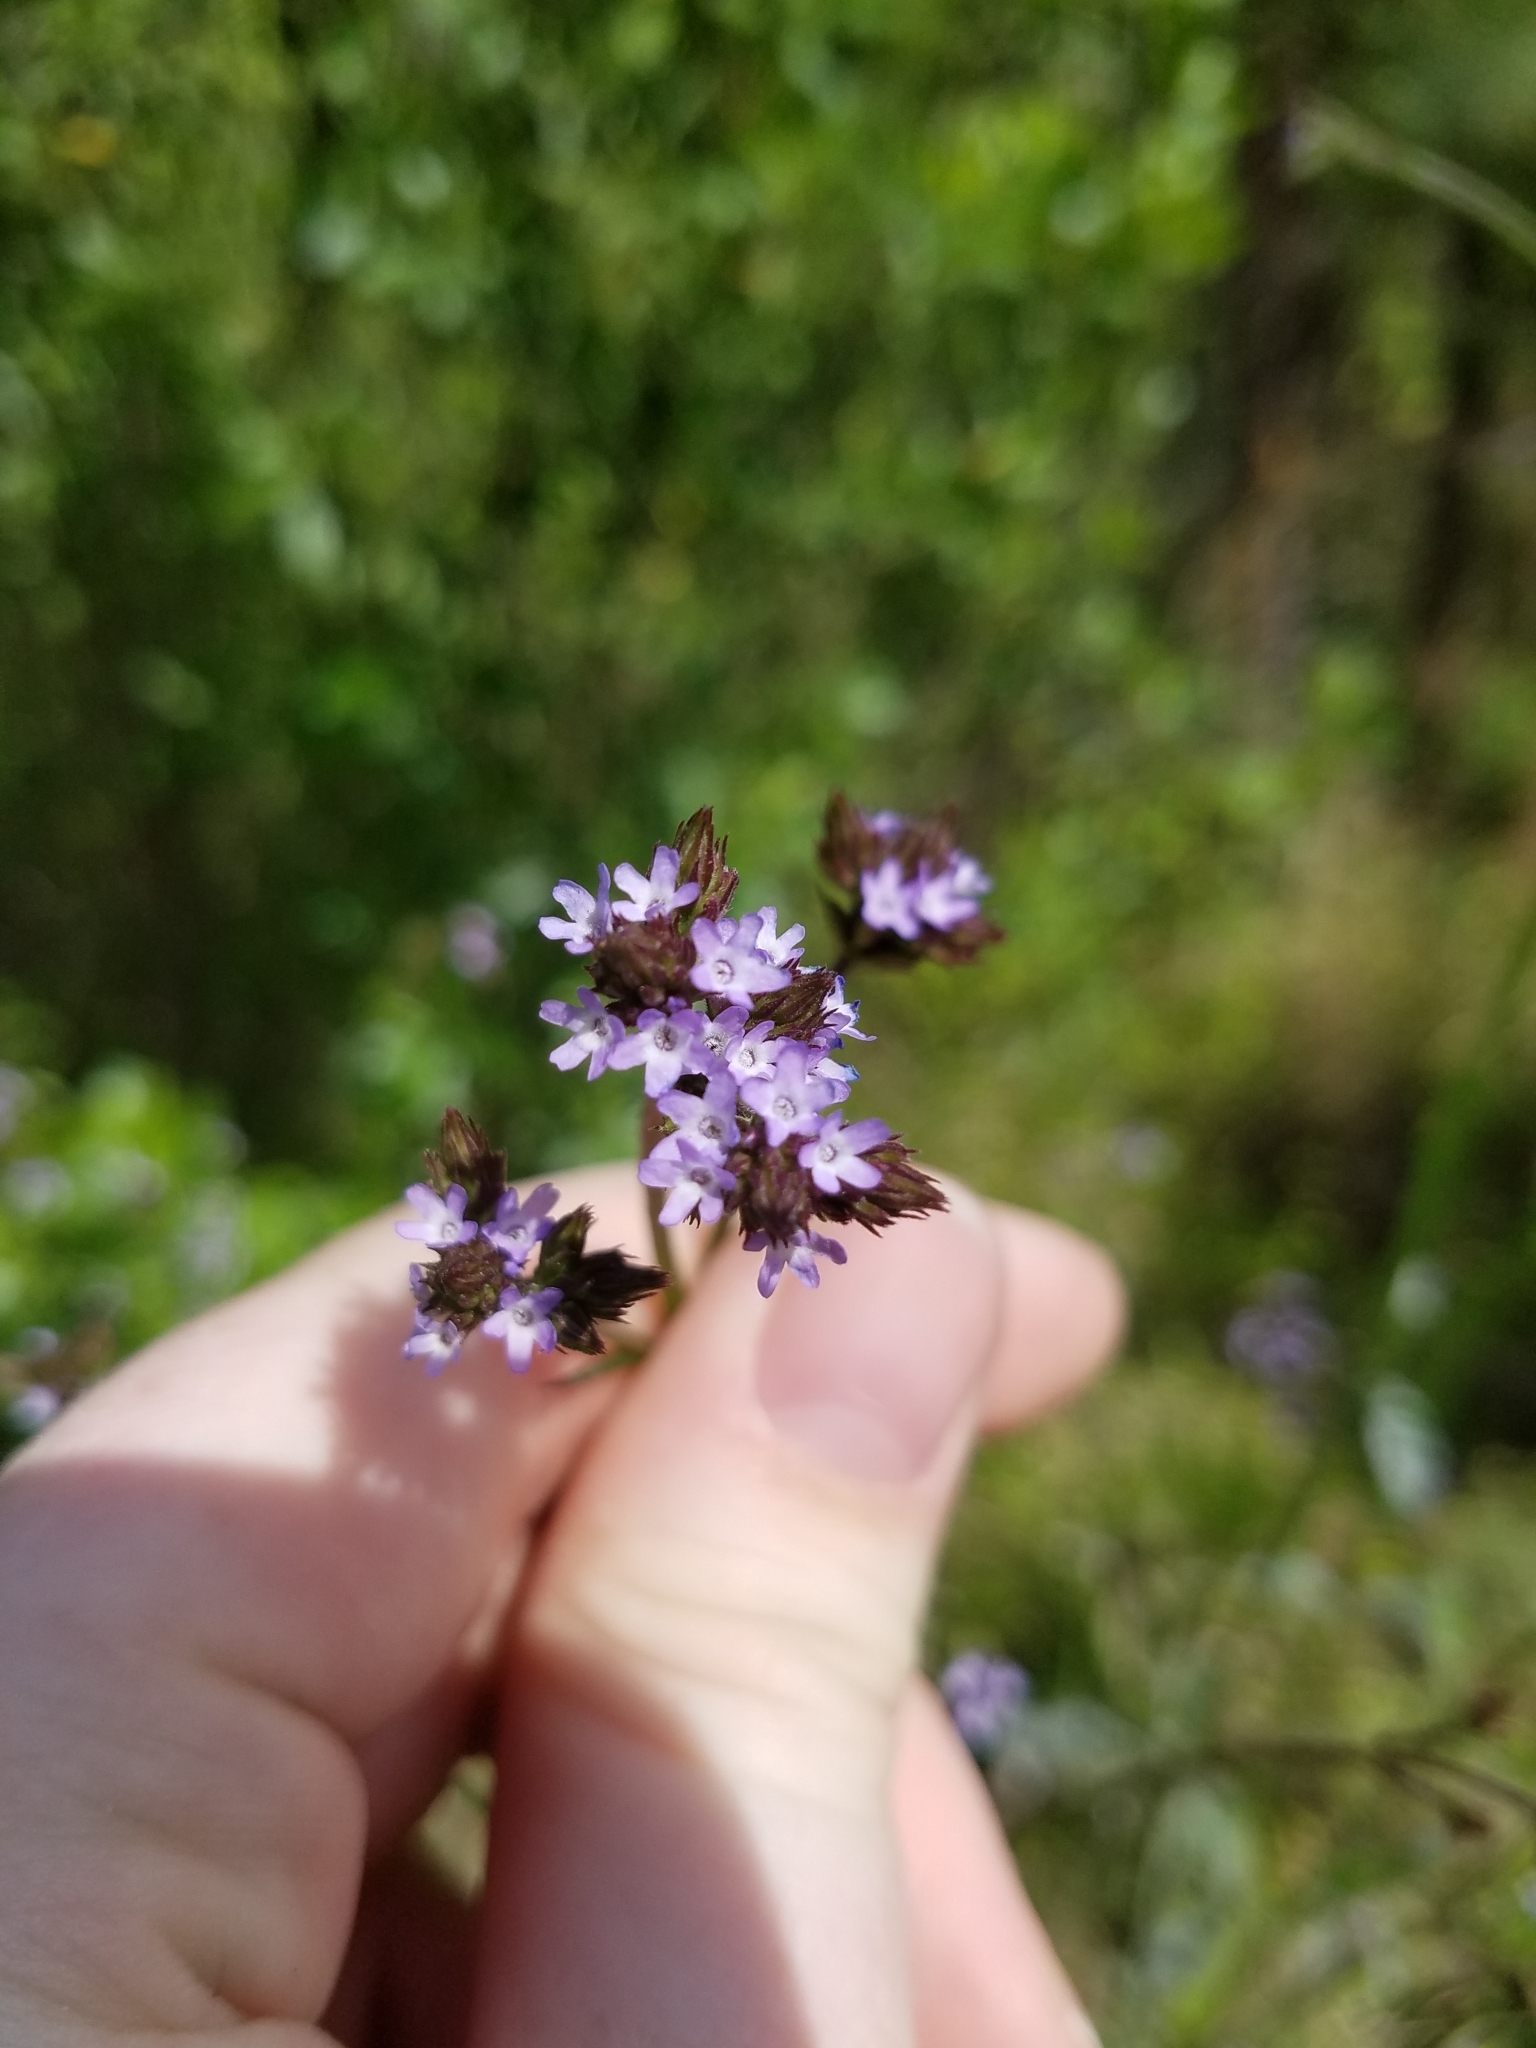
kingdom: Plantae
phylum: Tracheophyta
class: Magnoliopsida
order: Lamiales
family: Verbenaceae
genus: Verbena
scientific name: Verbena brasiliensis
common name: Brazilian vervain
